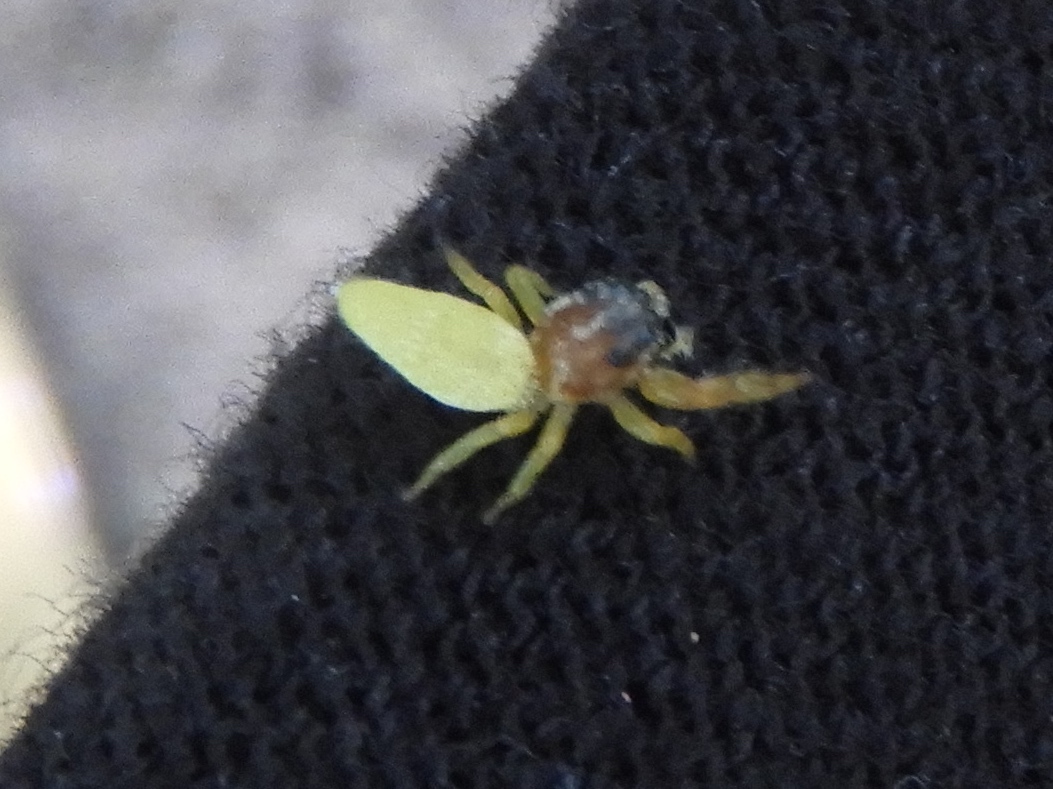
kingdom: Animalia
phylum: Arthropoda
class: Arachnida
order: Araneae
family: Salticidae
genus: Hentzia
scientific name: Hentzia
